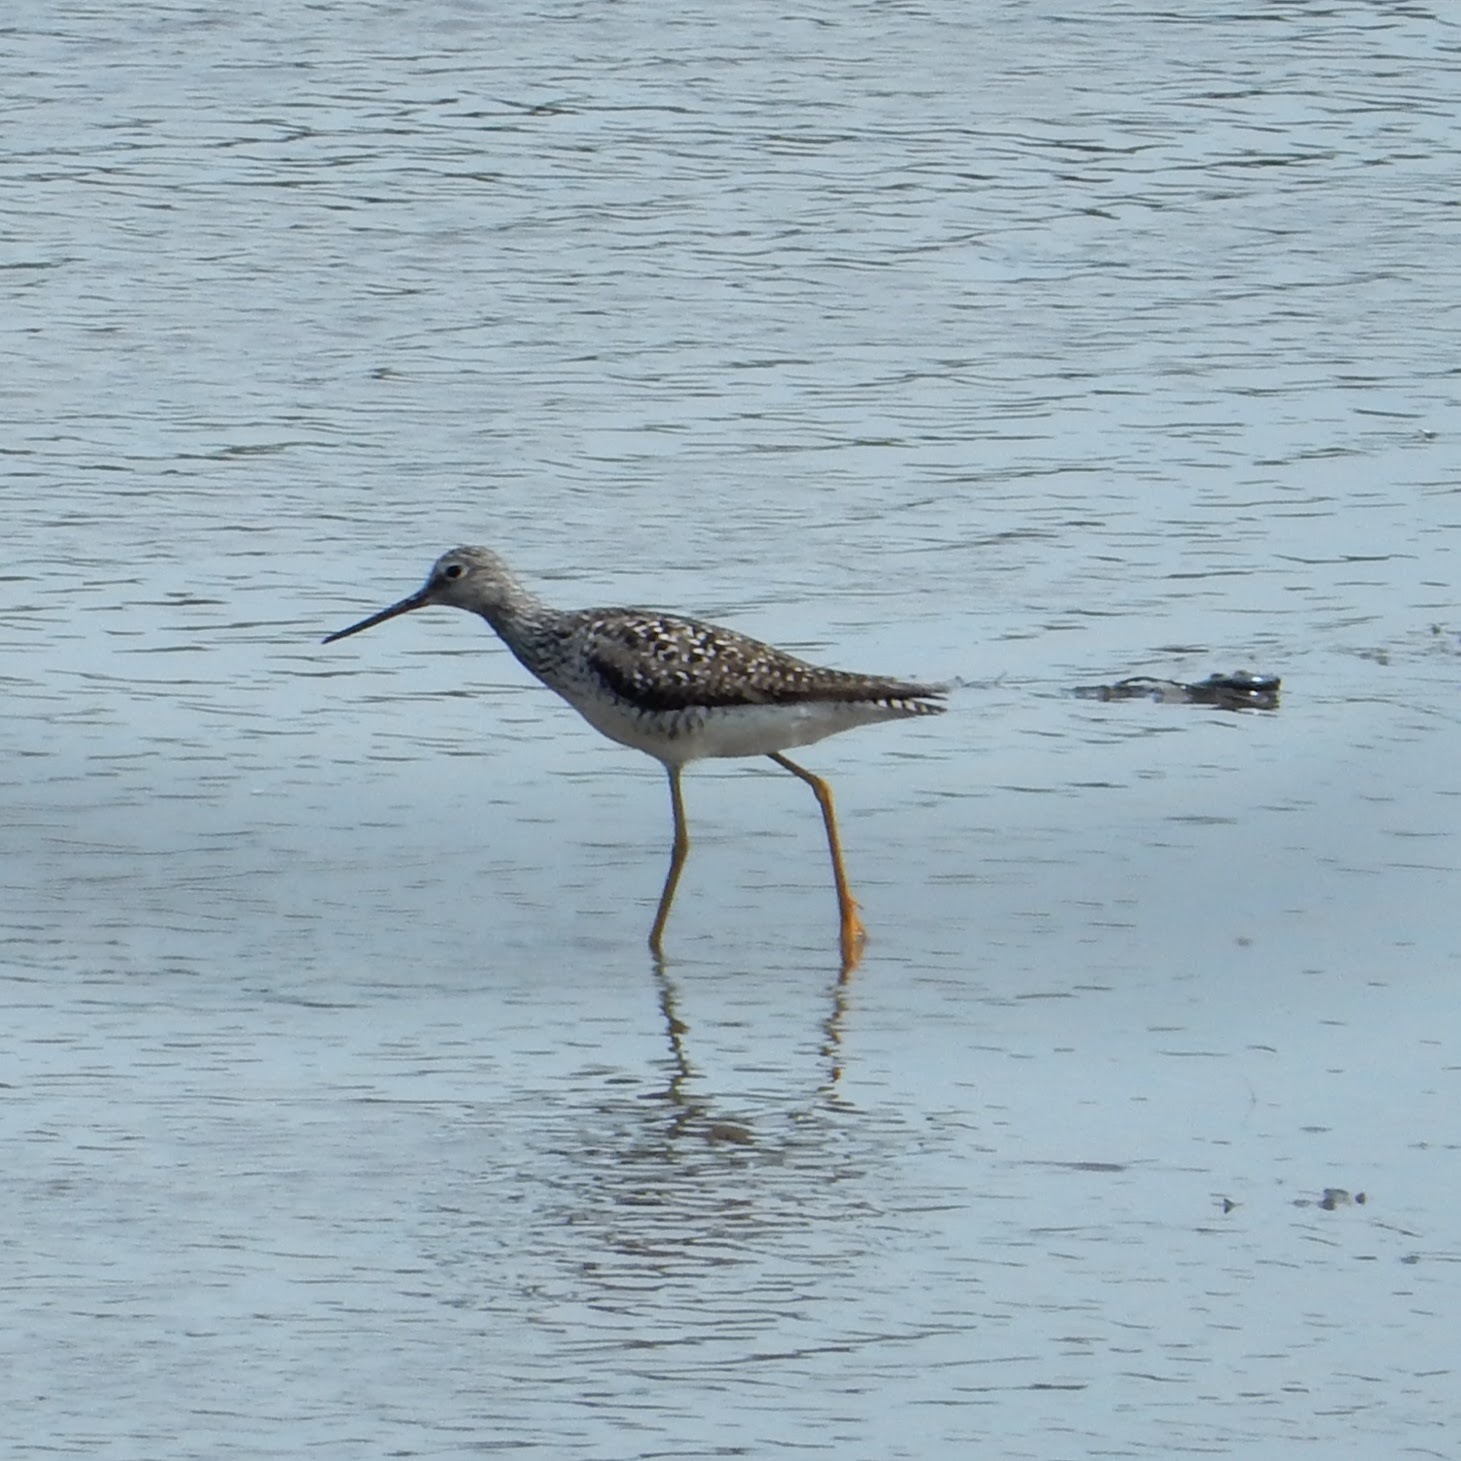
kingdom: Animalia
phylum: Chordata
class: Aves
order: Charadriiformes
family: Scolopacidae
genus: Tringa
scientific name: Tringa melanoleuca
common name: Greater yellowlegs
